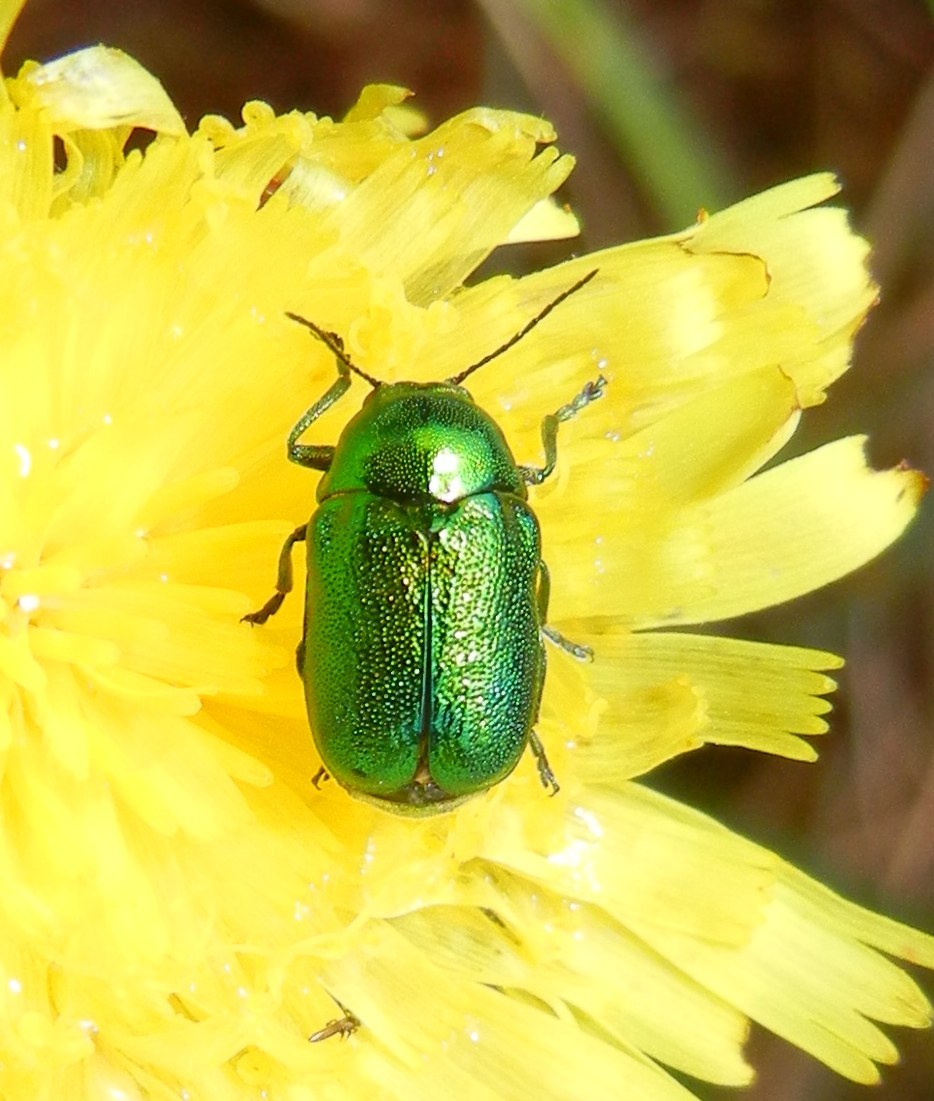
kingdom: Animalia
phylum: Arthropoda
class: Insecta
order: Coleoptera
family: Chrysomelidae
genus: Cryptocephalus
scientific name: Cryptocephalus aureolus
